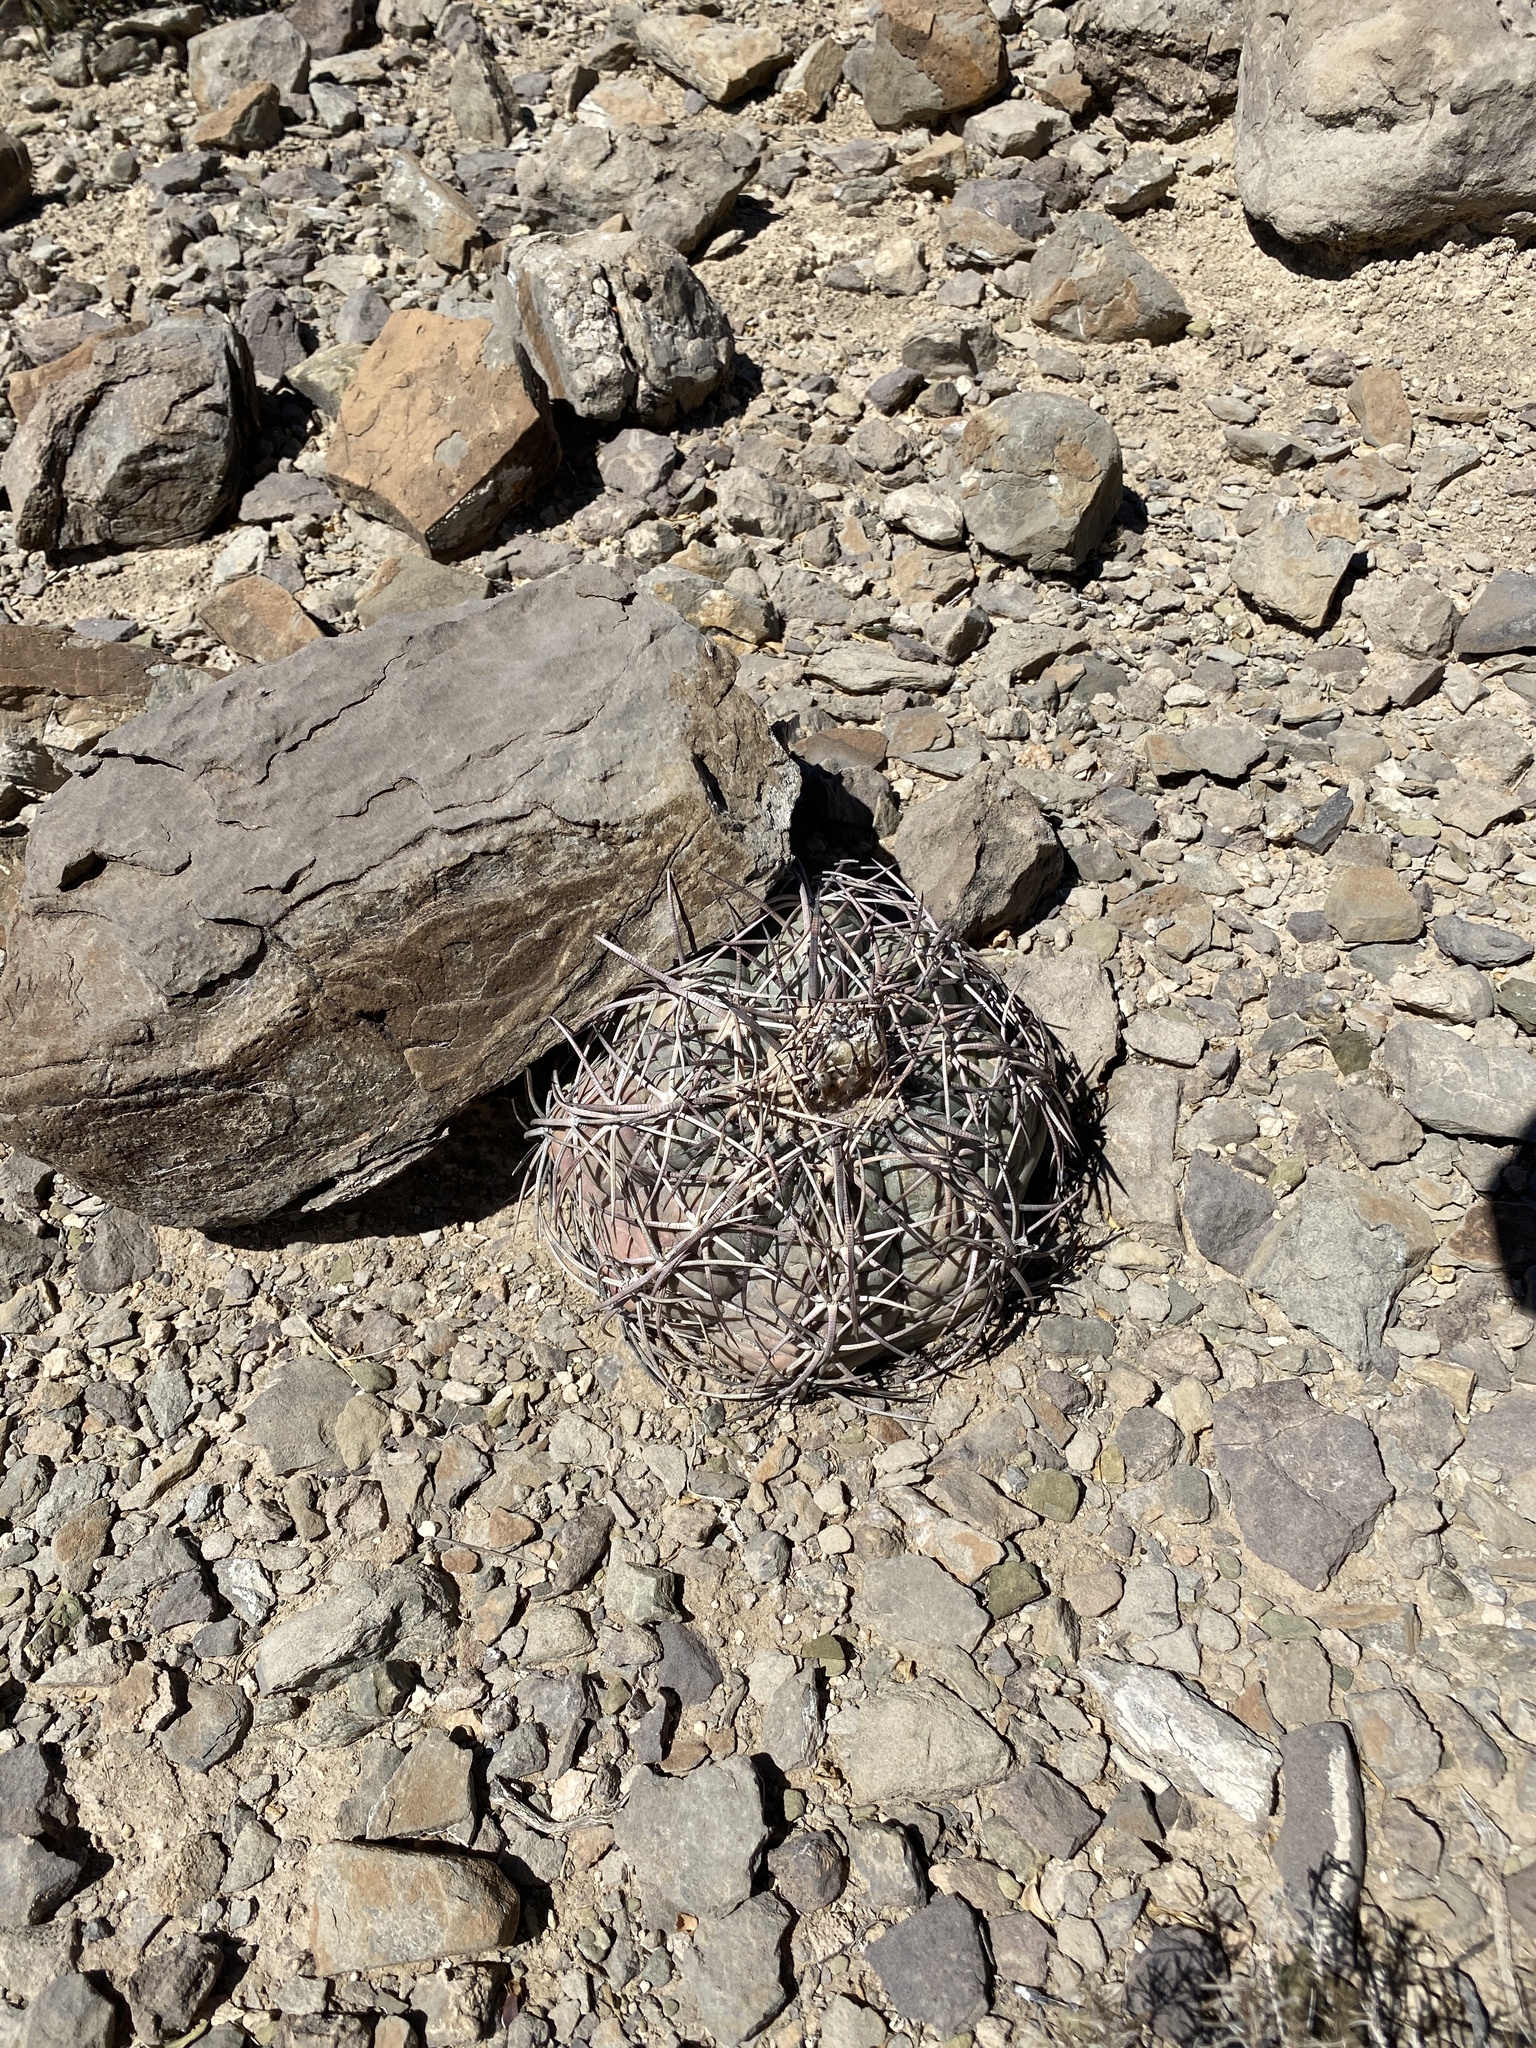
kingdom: Plantae
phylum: Tracheophyta
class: Magnoliopsida
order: Caryophyllales
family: Cactaceae
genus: Echinocactus
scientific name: Echinocactus horizonthalonius
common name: Devilshead
